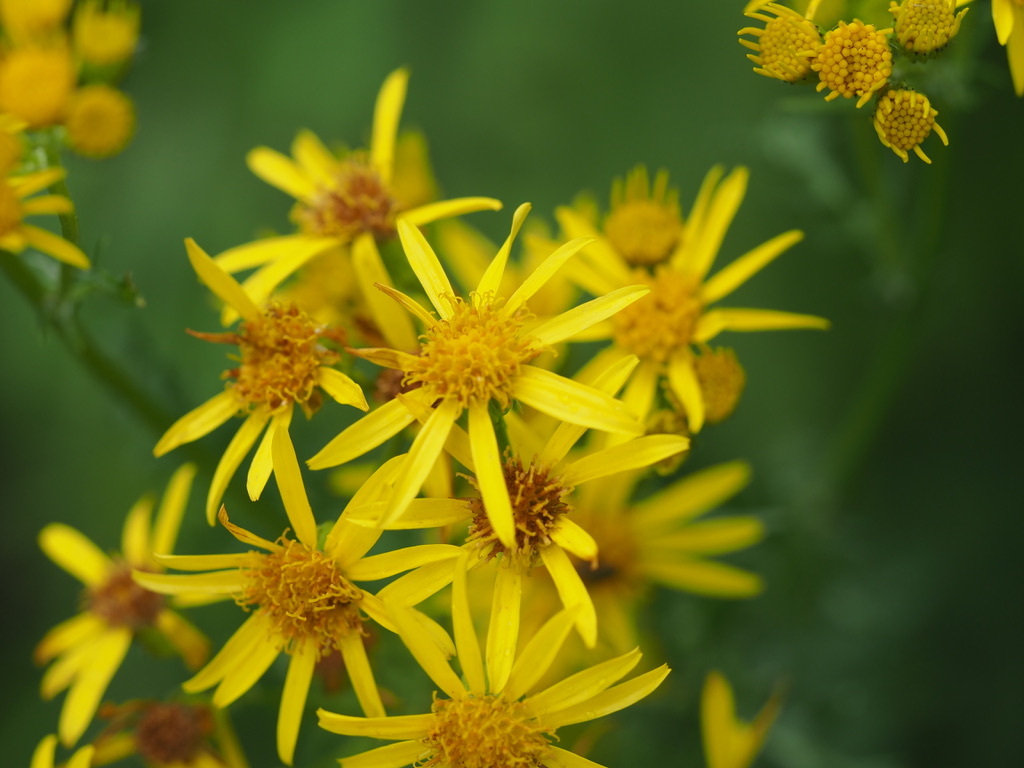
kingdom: Plantae
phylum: Tracheophyta
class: Magnoliopsida
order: Asterales
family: Asteraceae
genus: Jacobaea
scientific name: Jacobaea vulgaris
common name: Stinking willie
